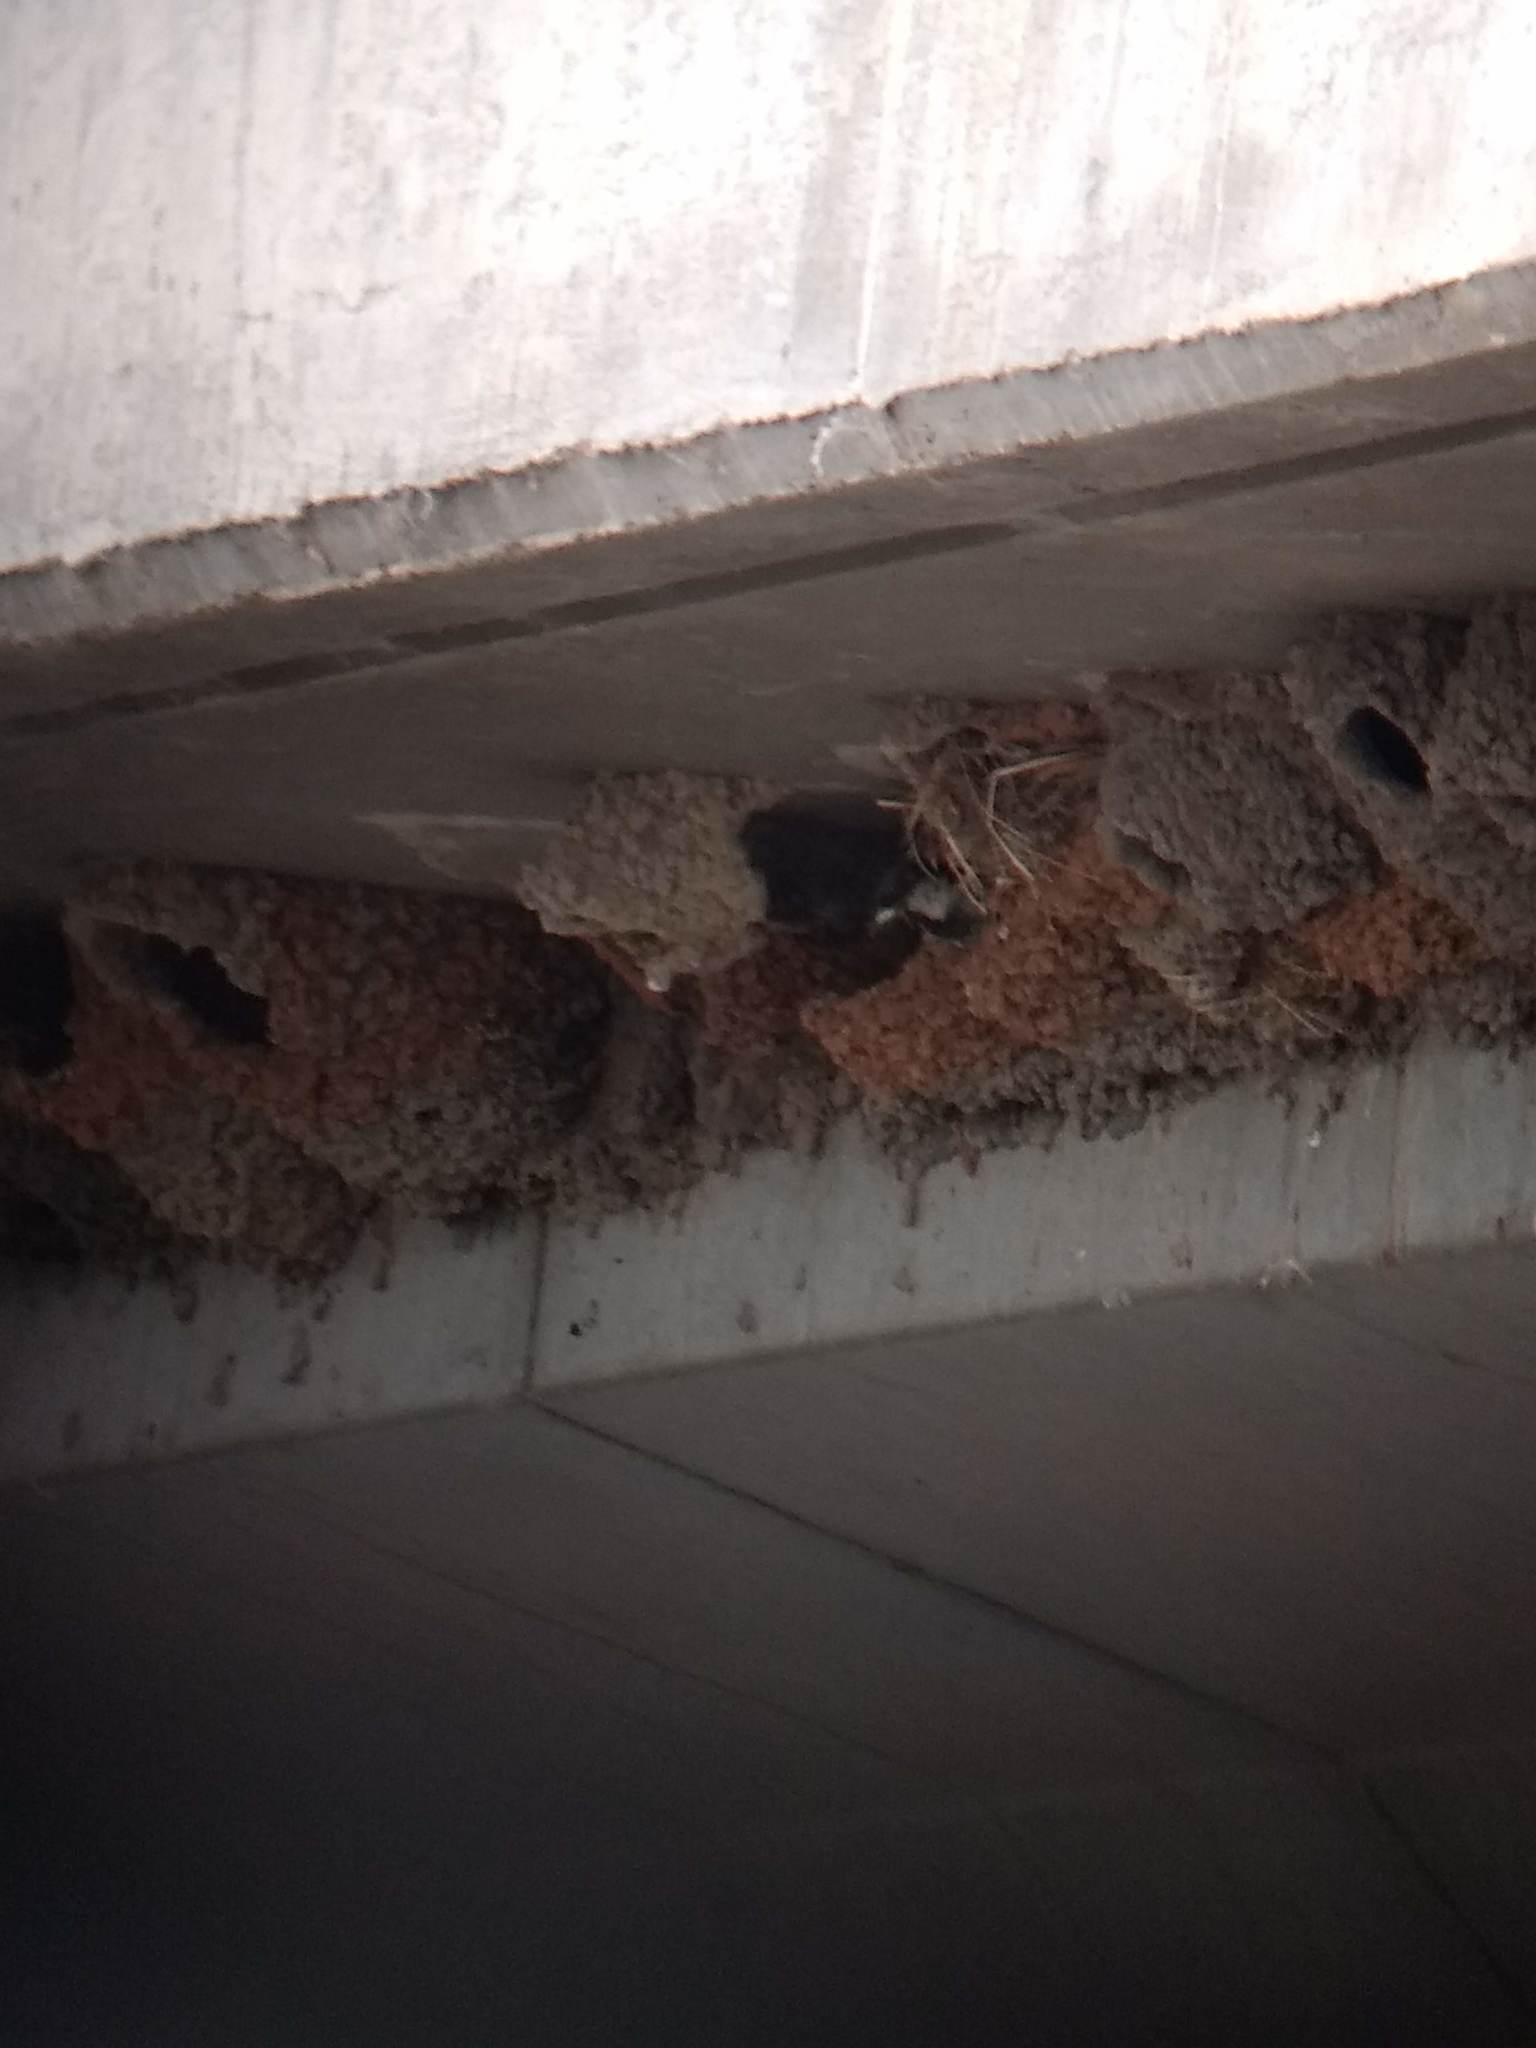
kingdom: Animalia
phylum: Chordata
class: Aves
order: Passeriformes
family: Hirundinidae
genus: Petrochelidon
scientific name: Petrochelidon pyrrhonota
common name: American cliff swallow
